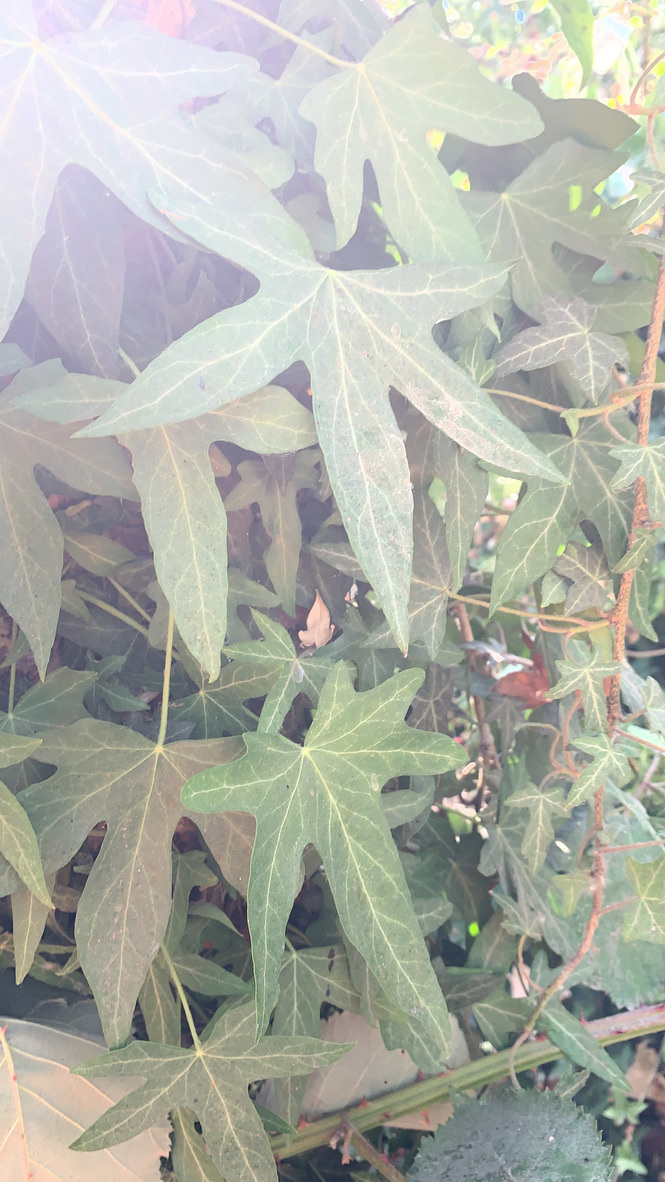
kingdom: Plantae
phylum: Tracheophyta
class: Magnoliopsida
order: Apiales
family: Araliaceae
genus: Hedera
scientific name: Hedera helix
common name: Ivy
